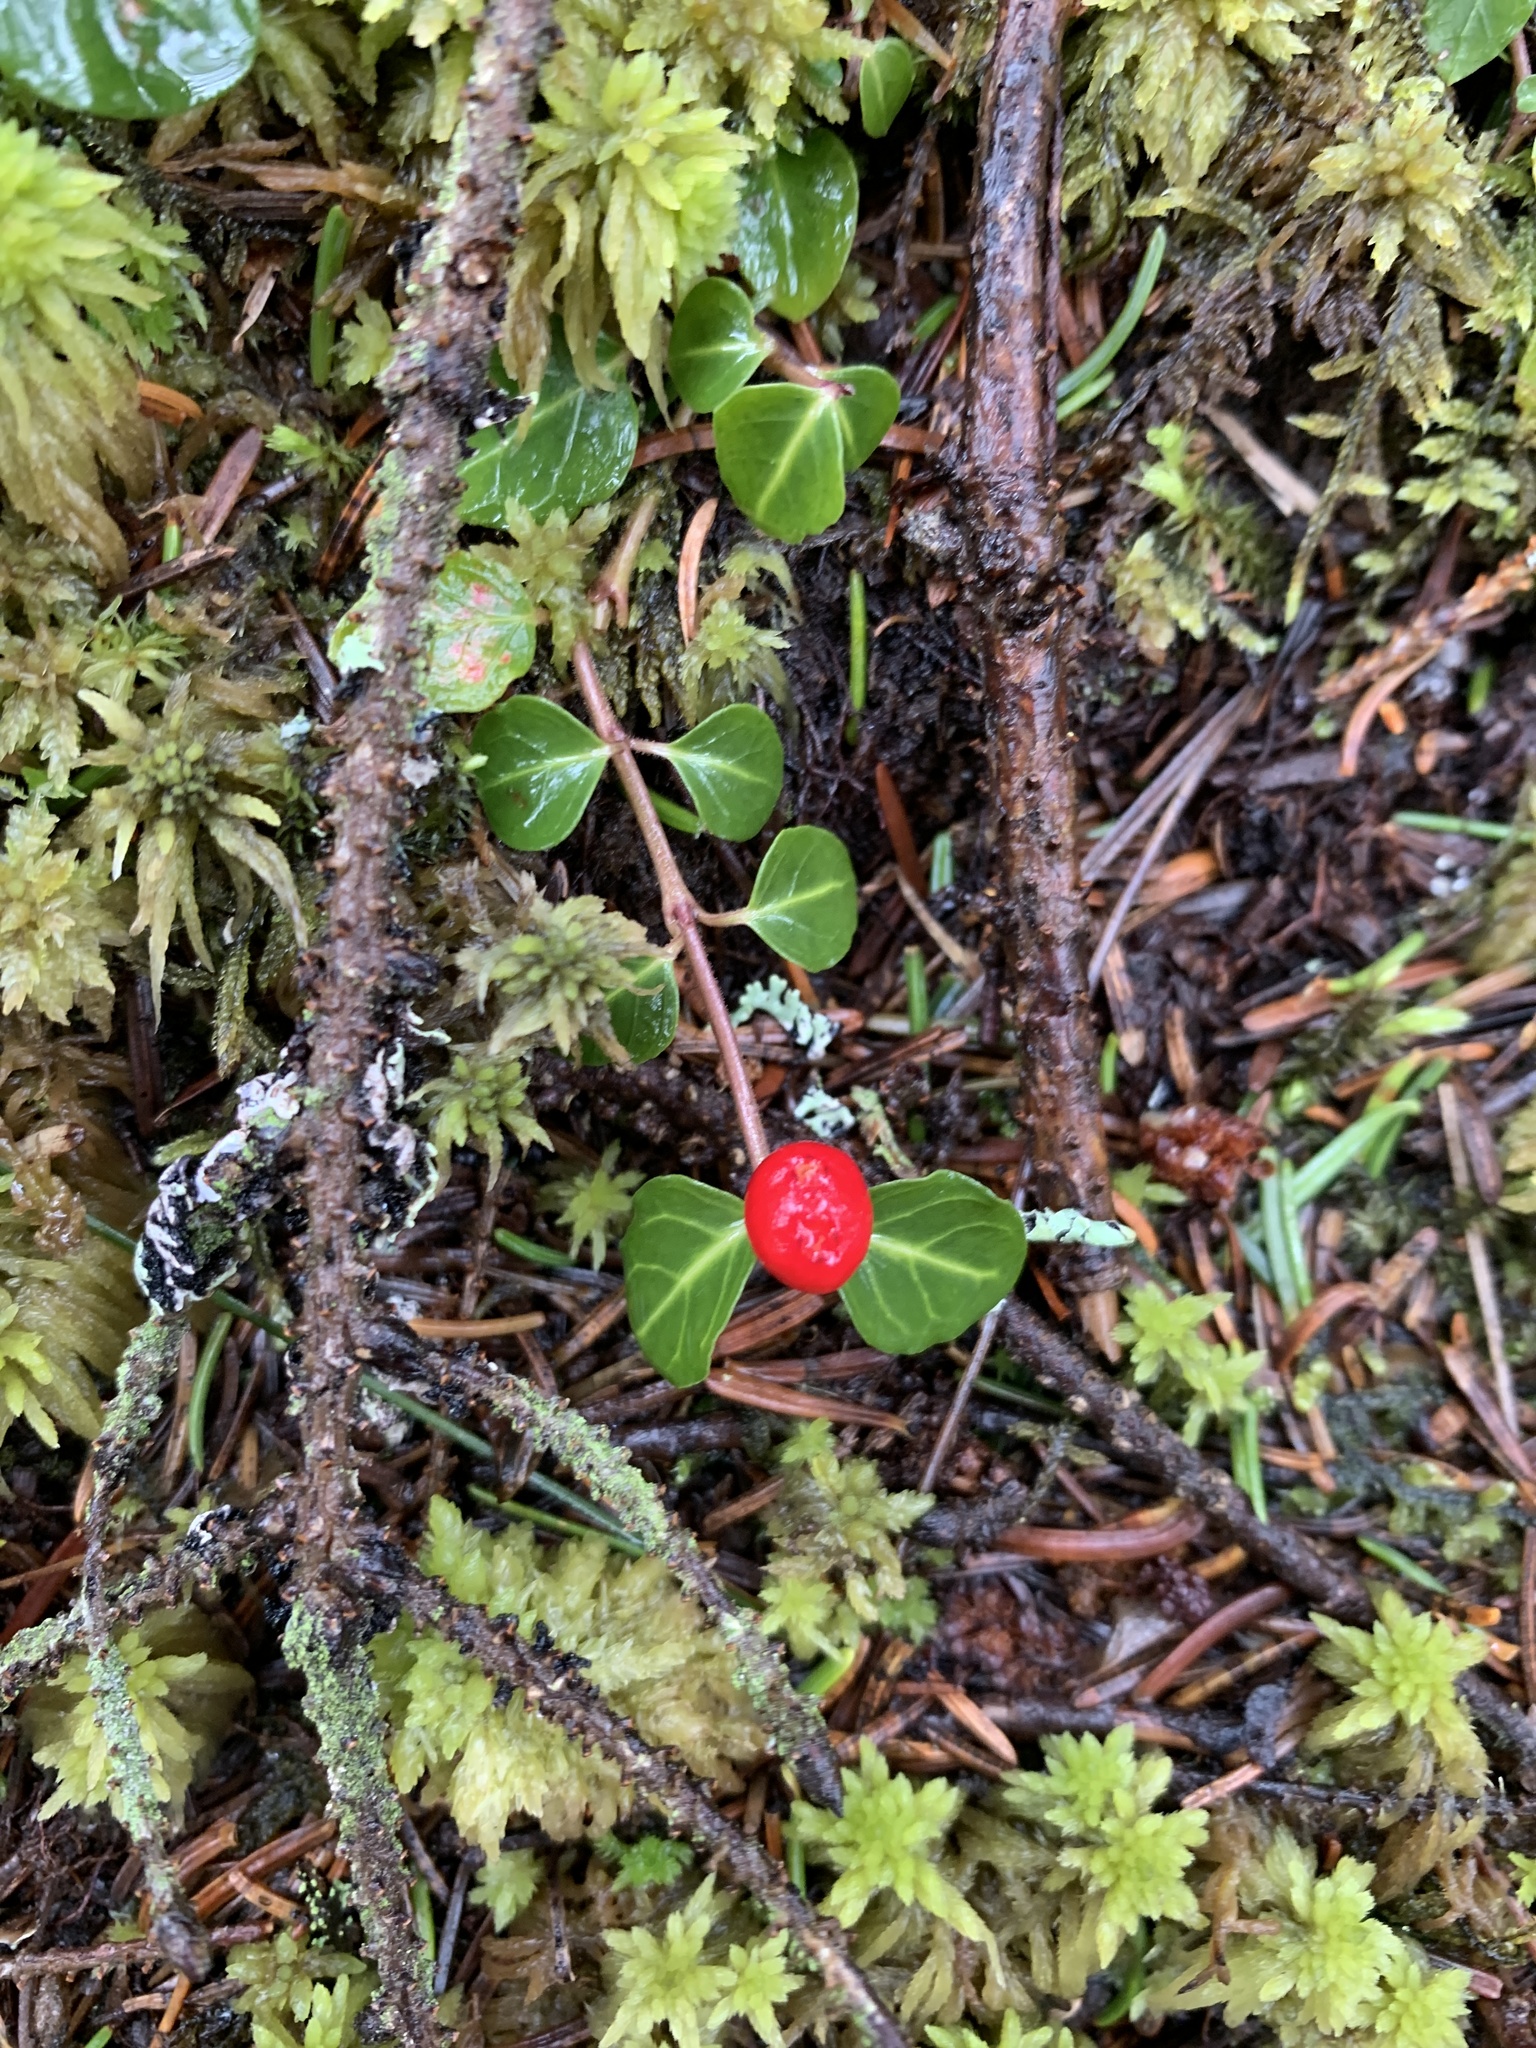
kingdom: Plantae
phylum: Tracheophyta
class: Magnoliopsida
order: Gentianales
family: Rubiaceae
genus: Mitchella
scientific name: Mitchella repens
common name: Partridge-berry
